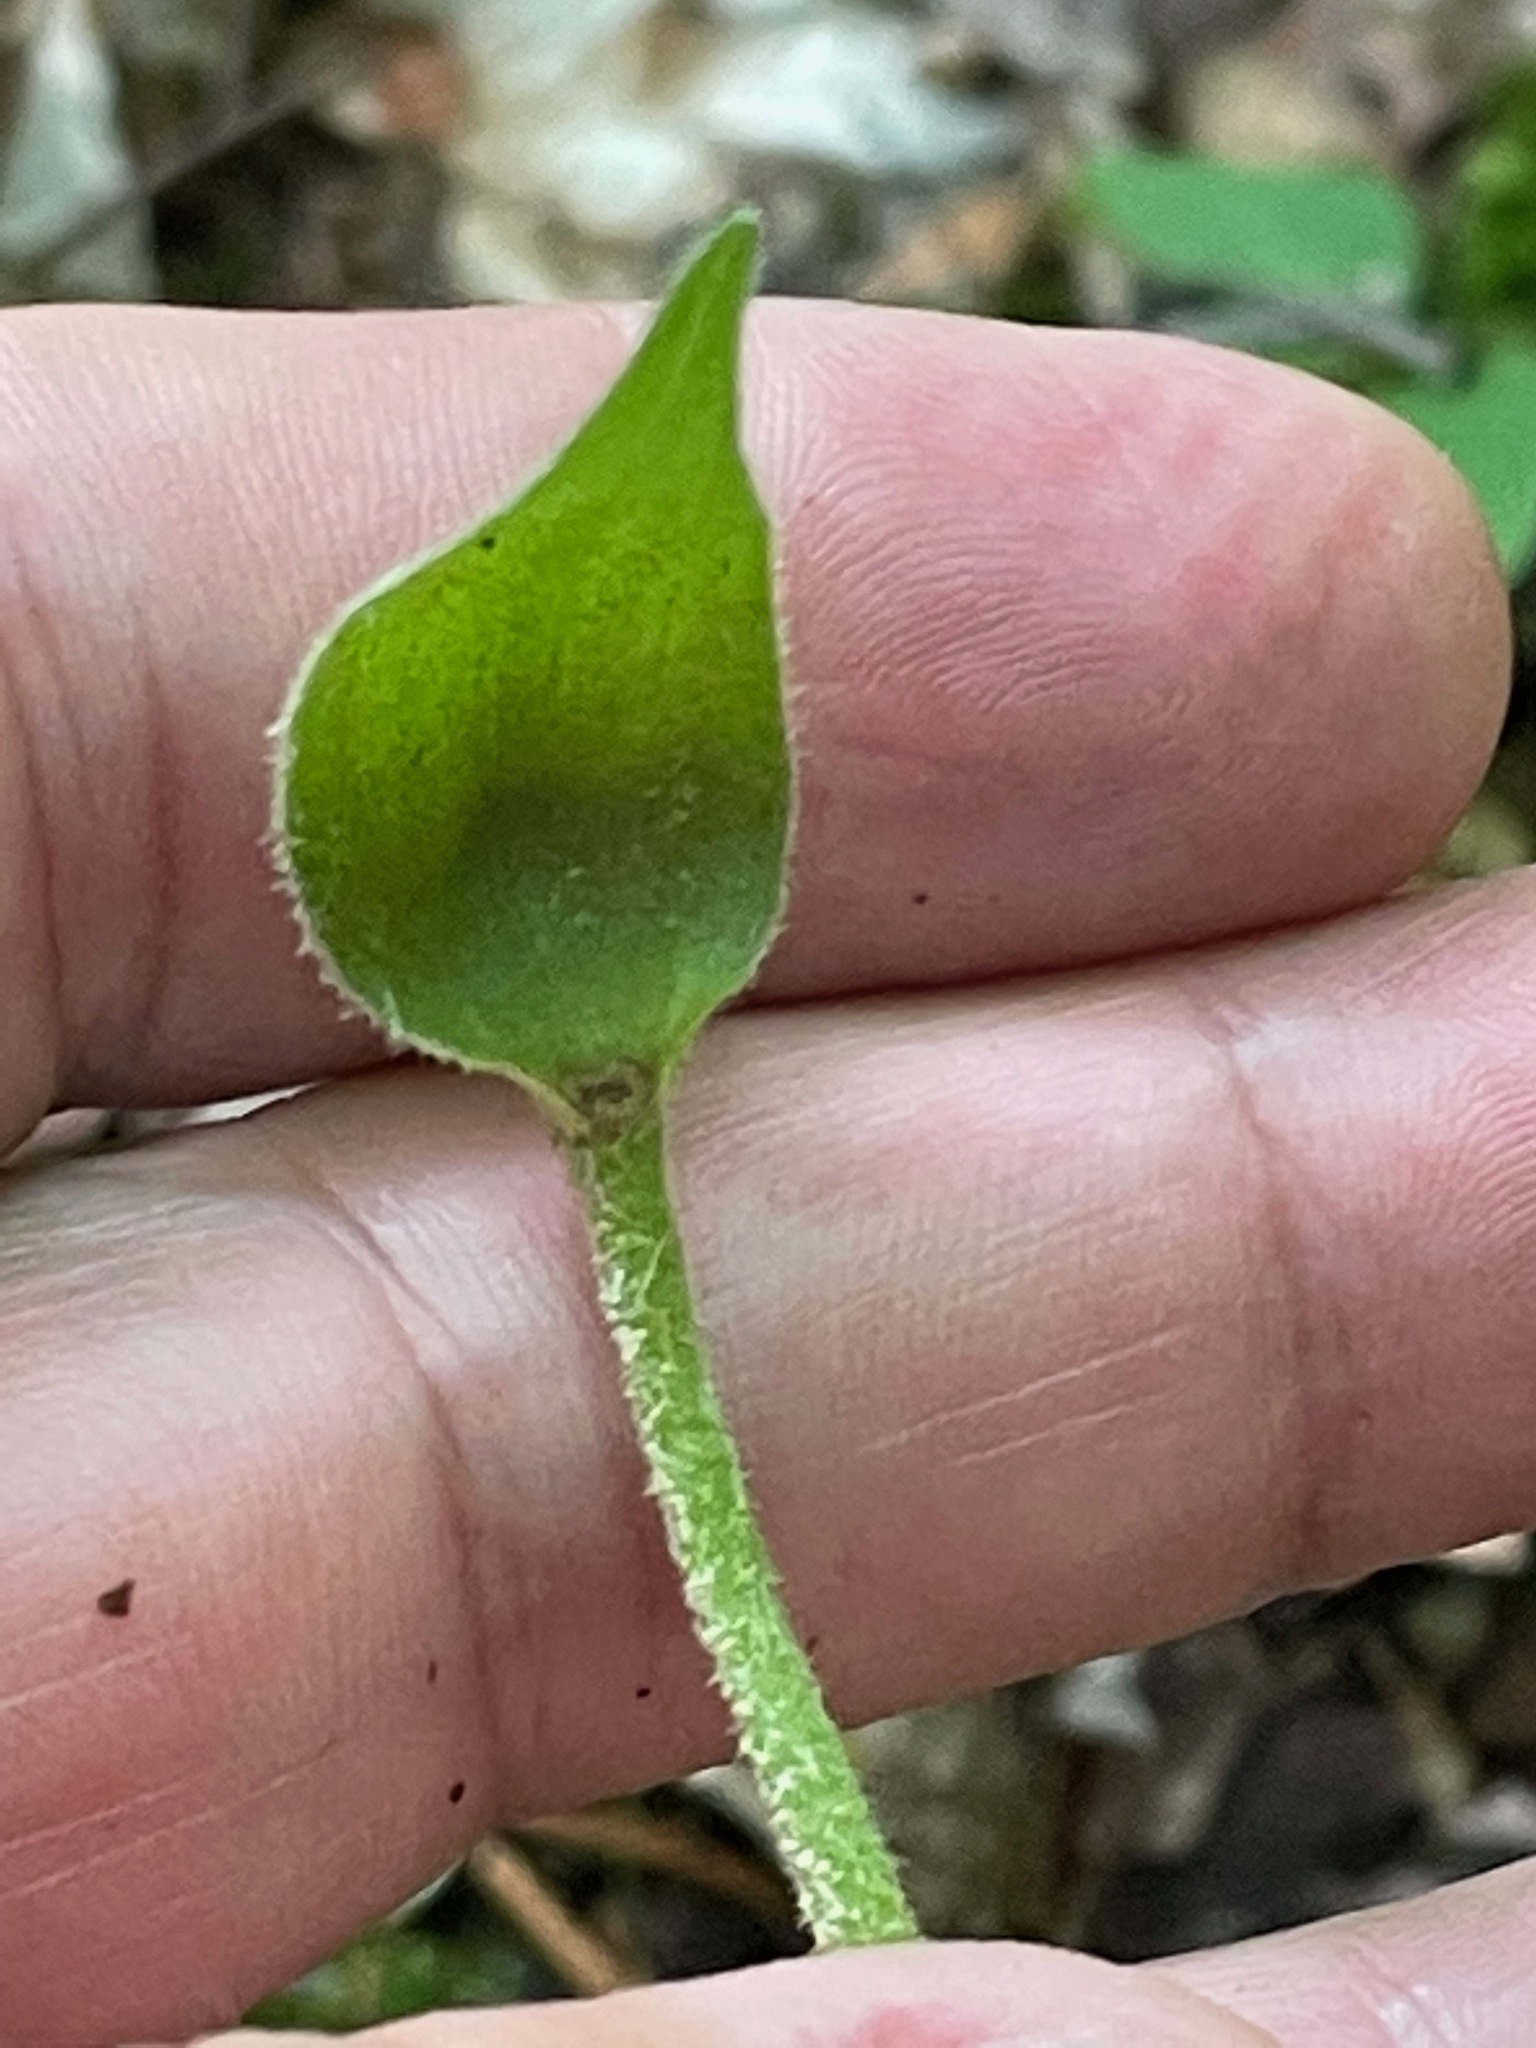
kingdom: Plantae
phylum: Tracheophyta
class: Liliopsida
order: Asparagales
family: Orchidaceae
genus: Cypripedium
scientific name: Cypripedium acaule
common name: Pink lady's-slipper
